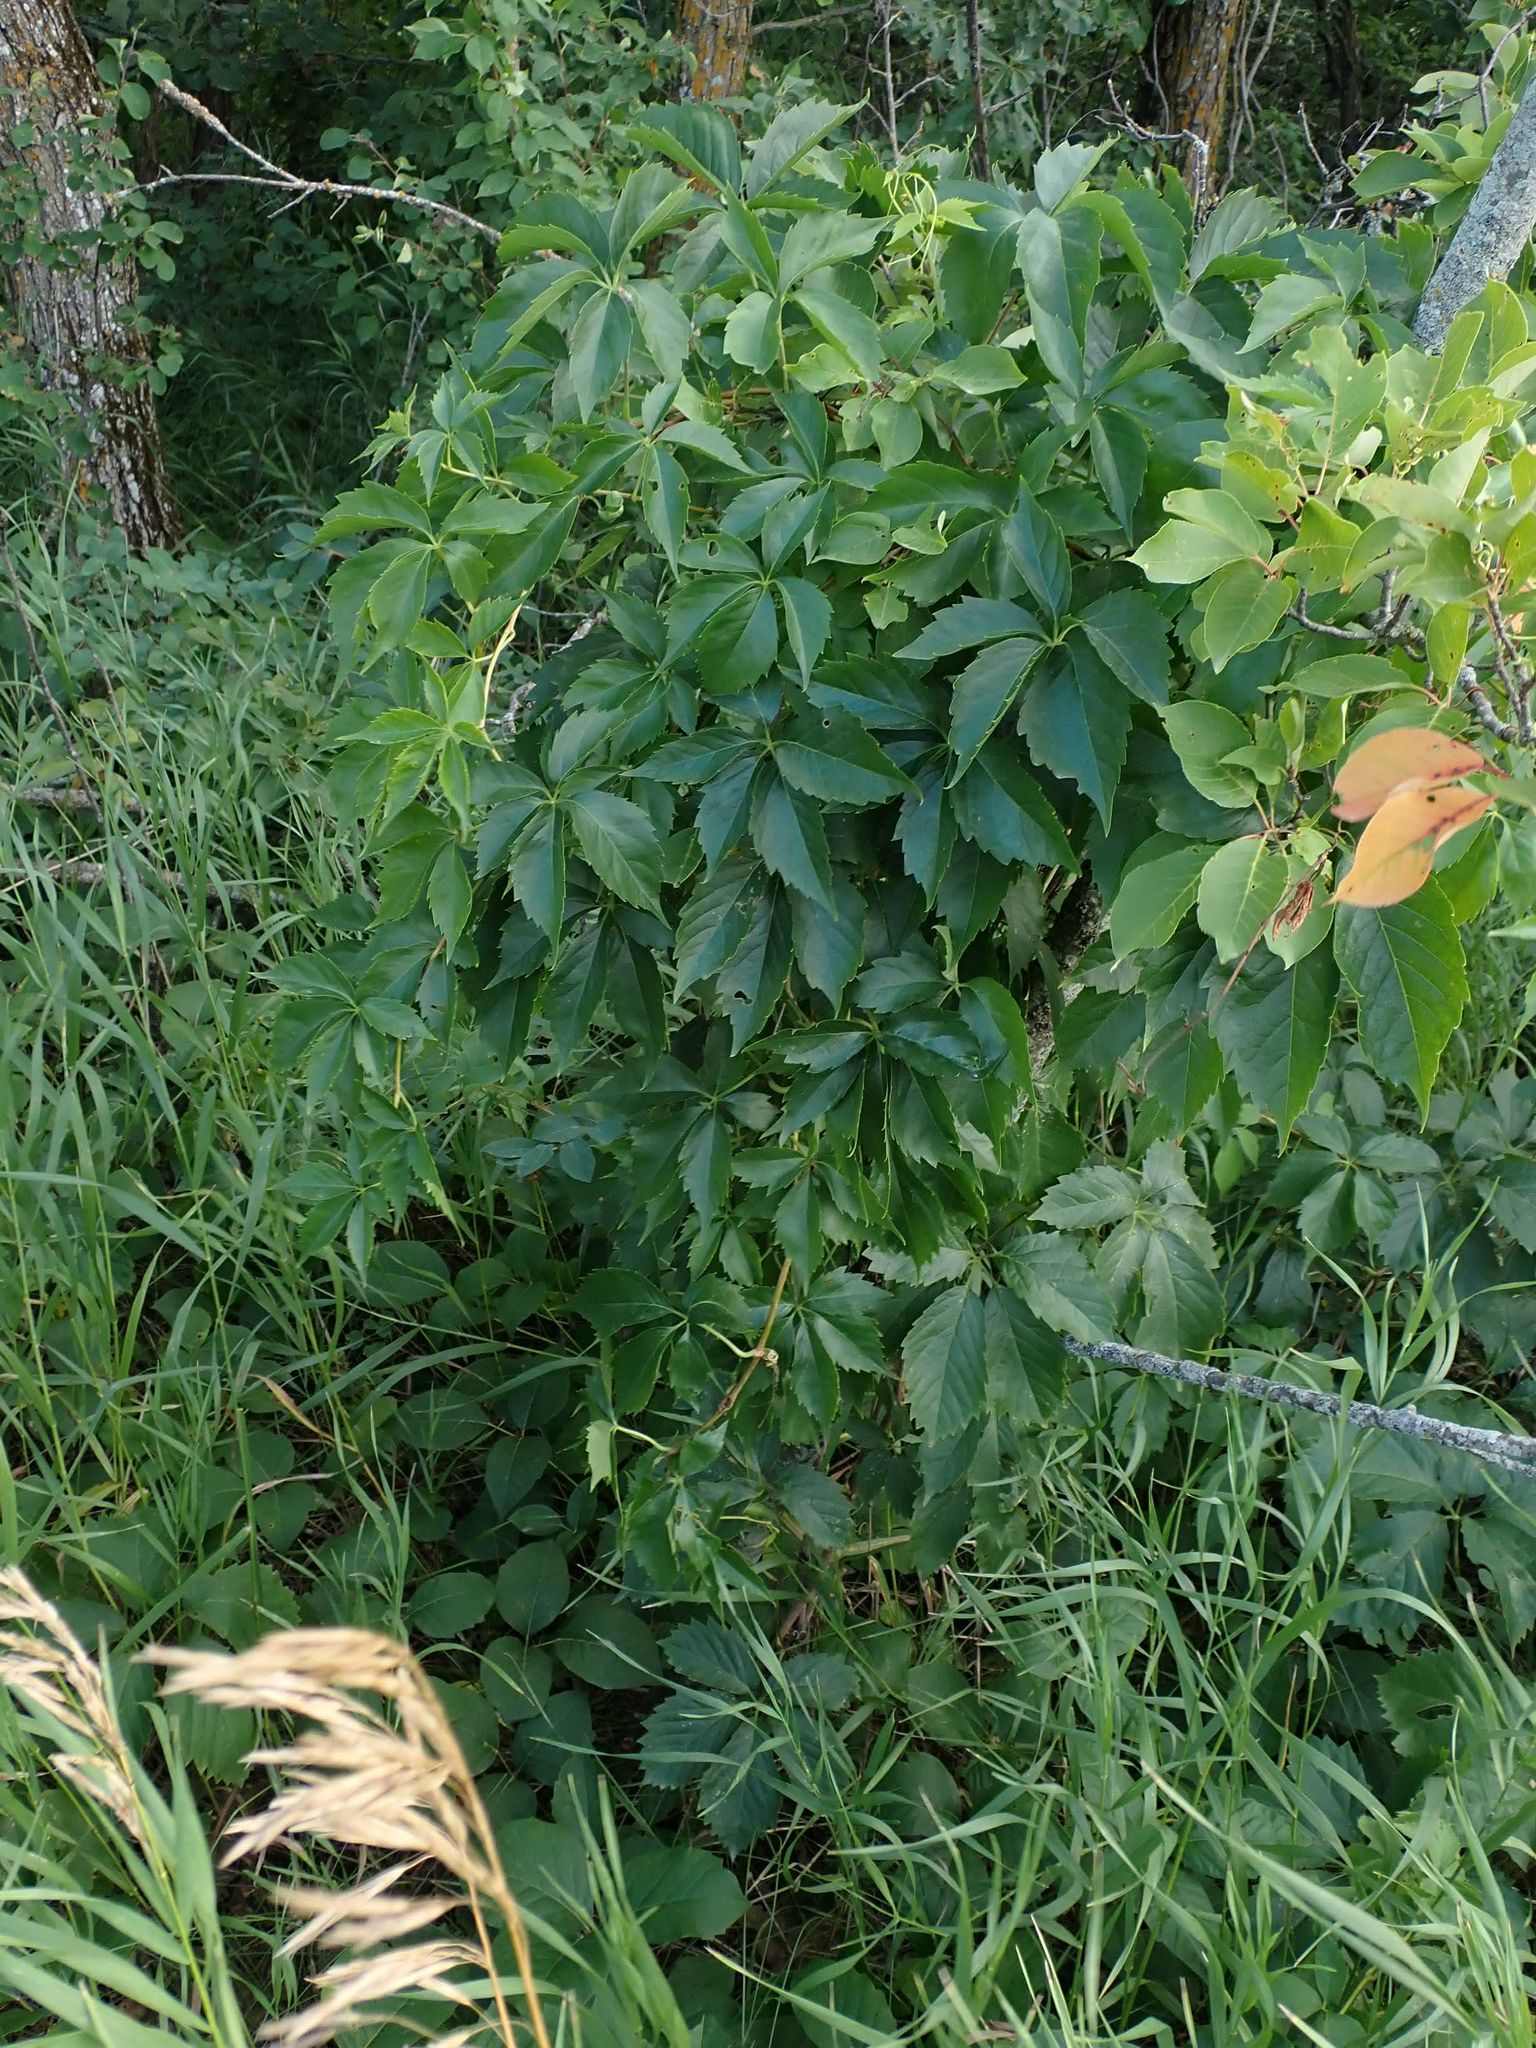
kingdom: Plantae
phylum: Tracheophyta
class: Magnoliopsida
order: Vitales
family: Vitaceae
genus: Parthenocissus
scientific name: Parthenocissus inserta
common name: False virginia-creeper
